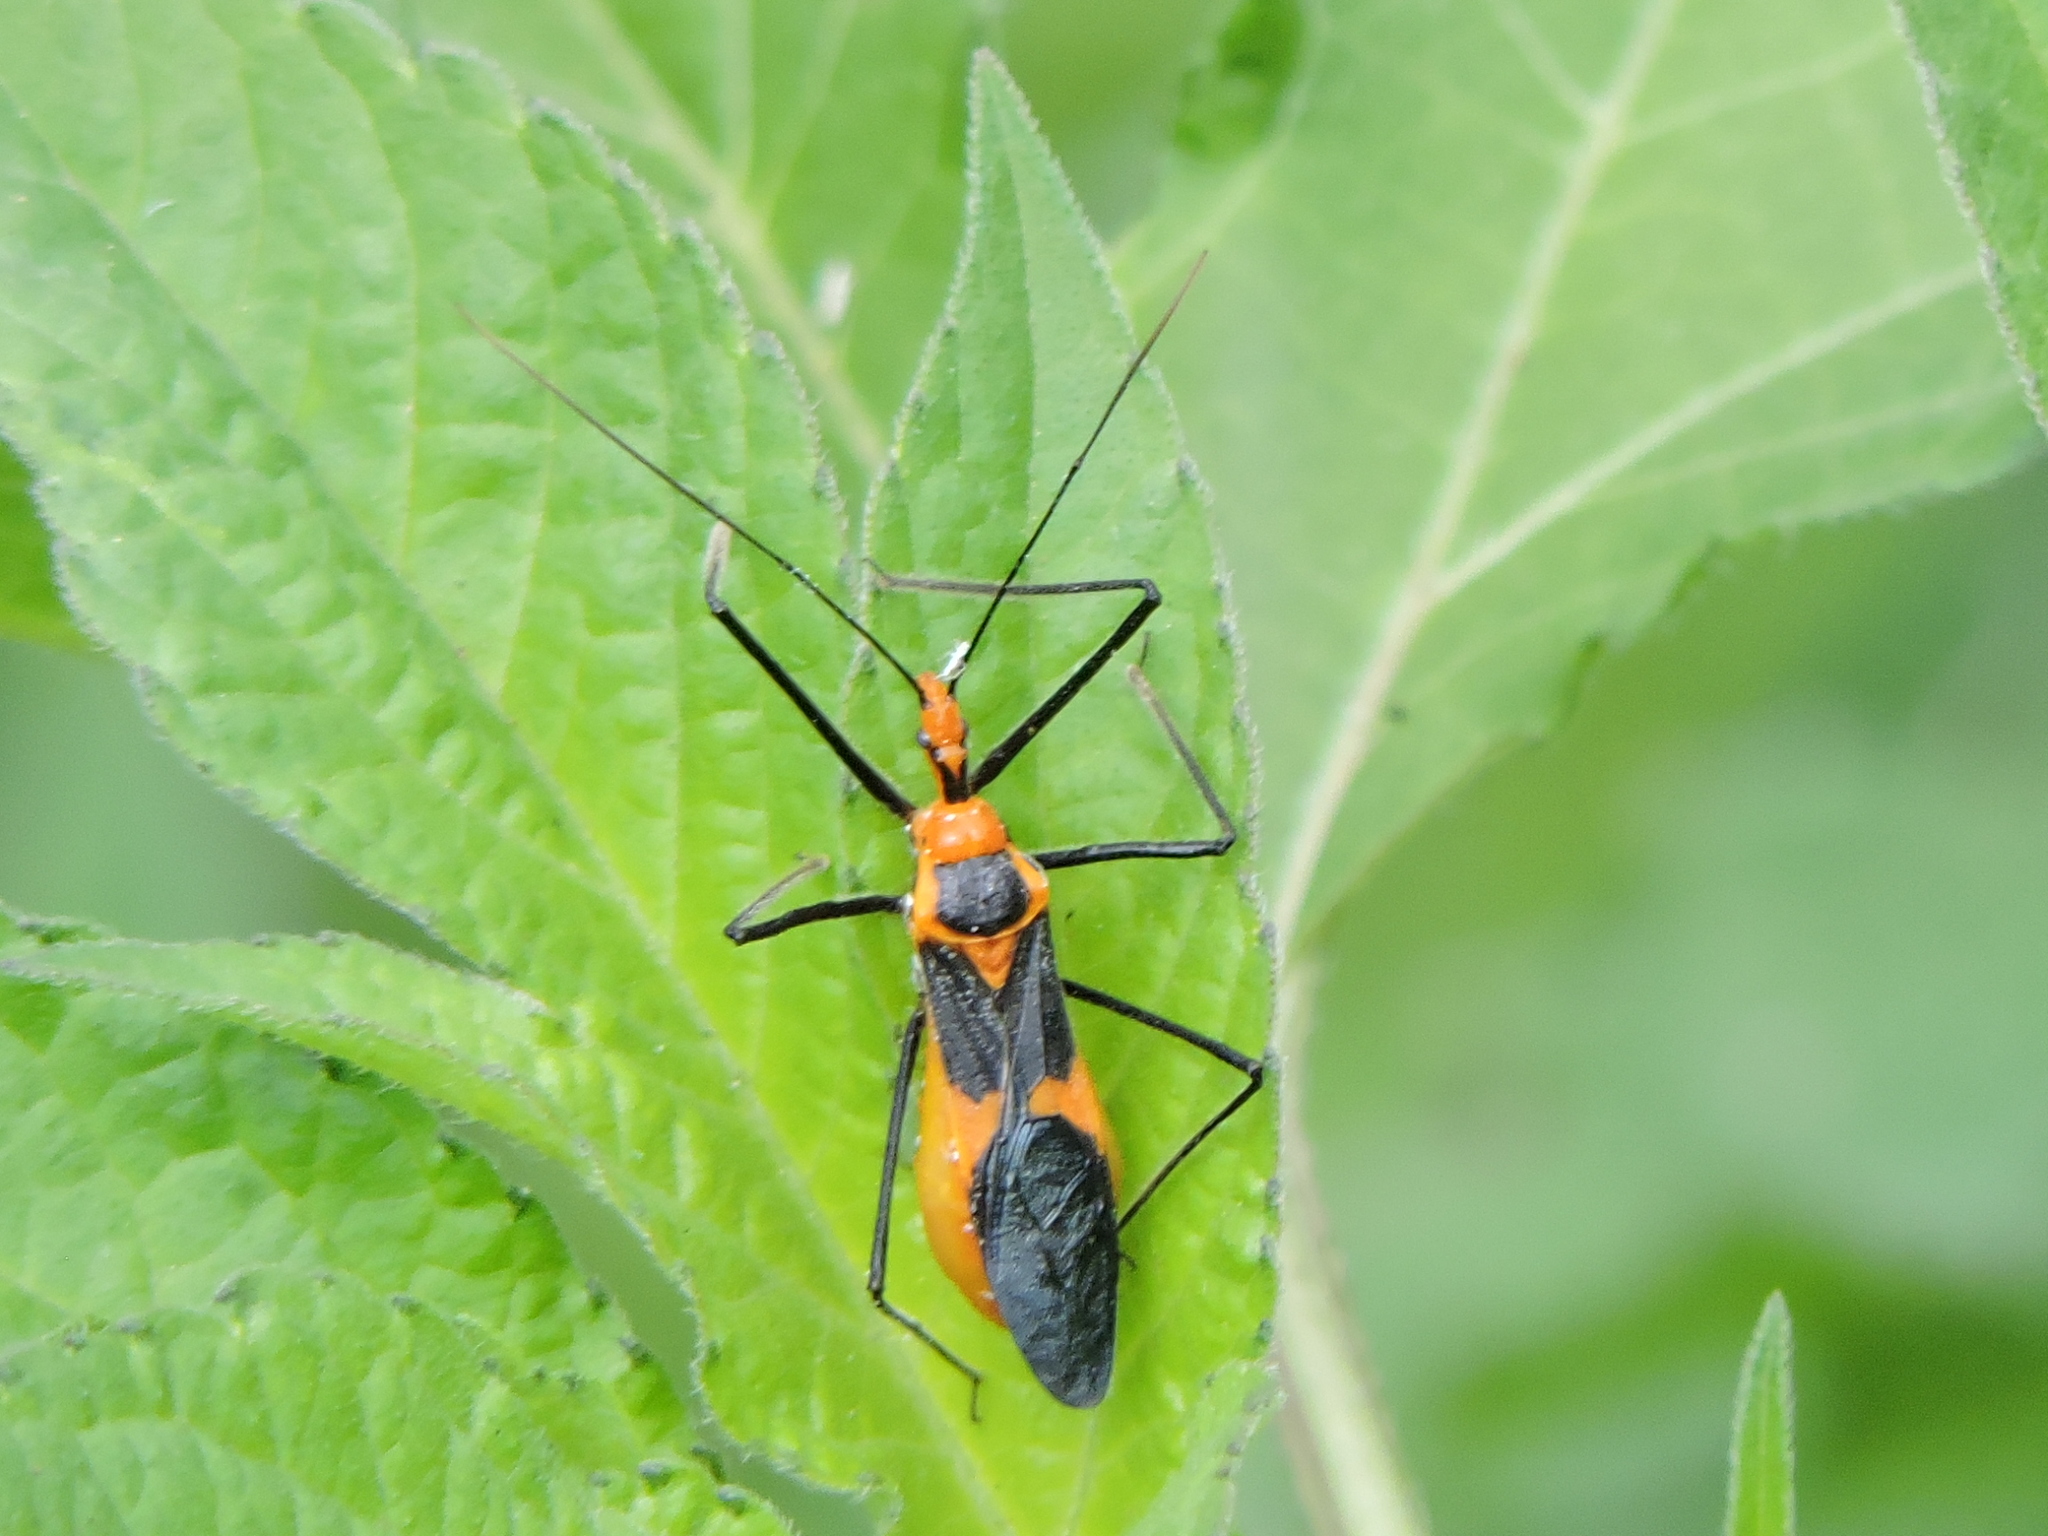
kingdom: Animalia
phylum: Arthropoda
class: Insecta
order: Hemiptera
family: Reduviidae
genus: Zelus
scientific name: Zelus longipes
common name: Milkweed assassin bug
